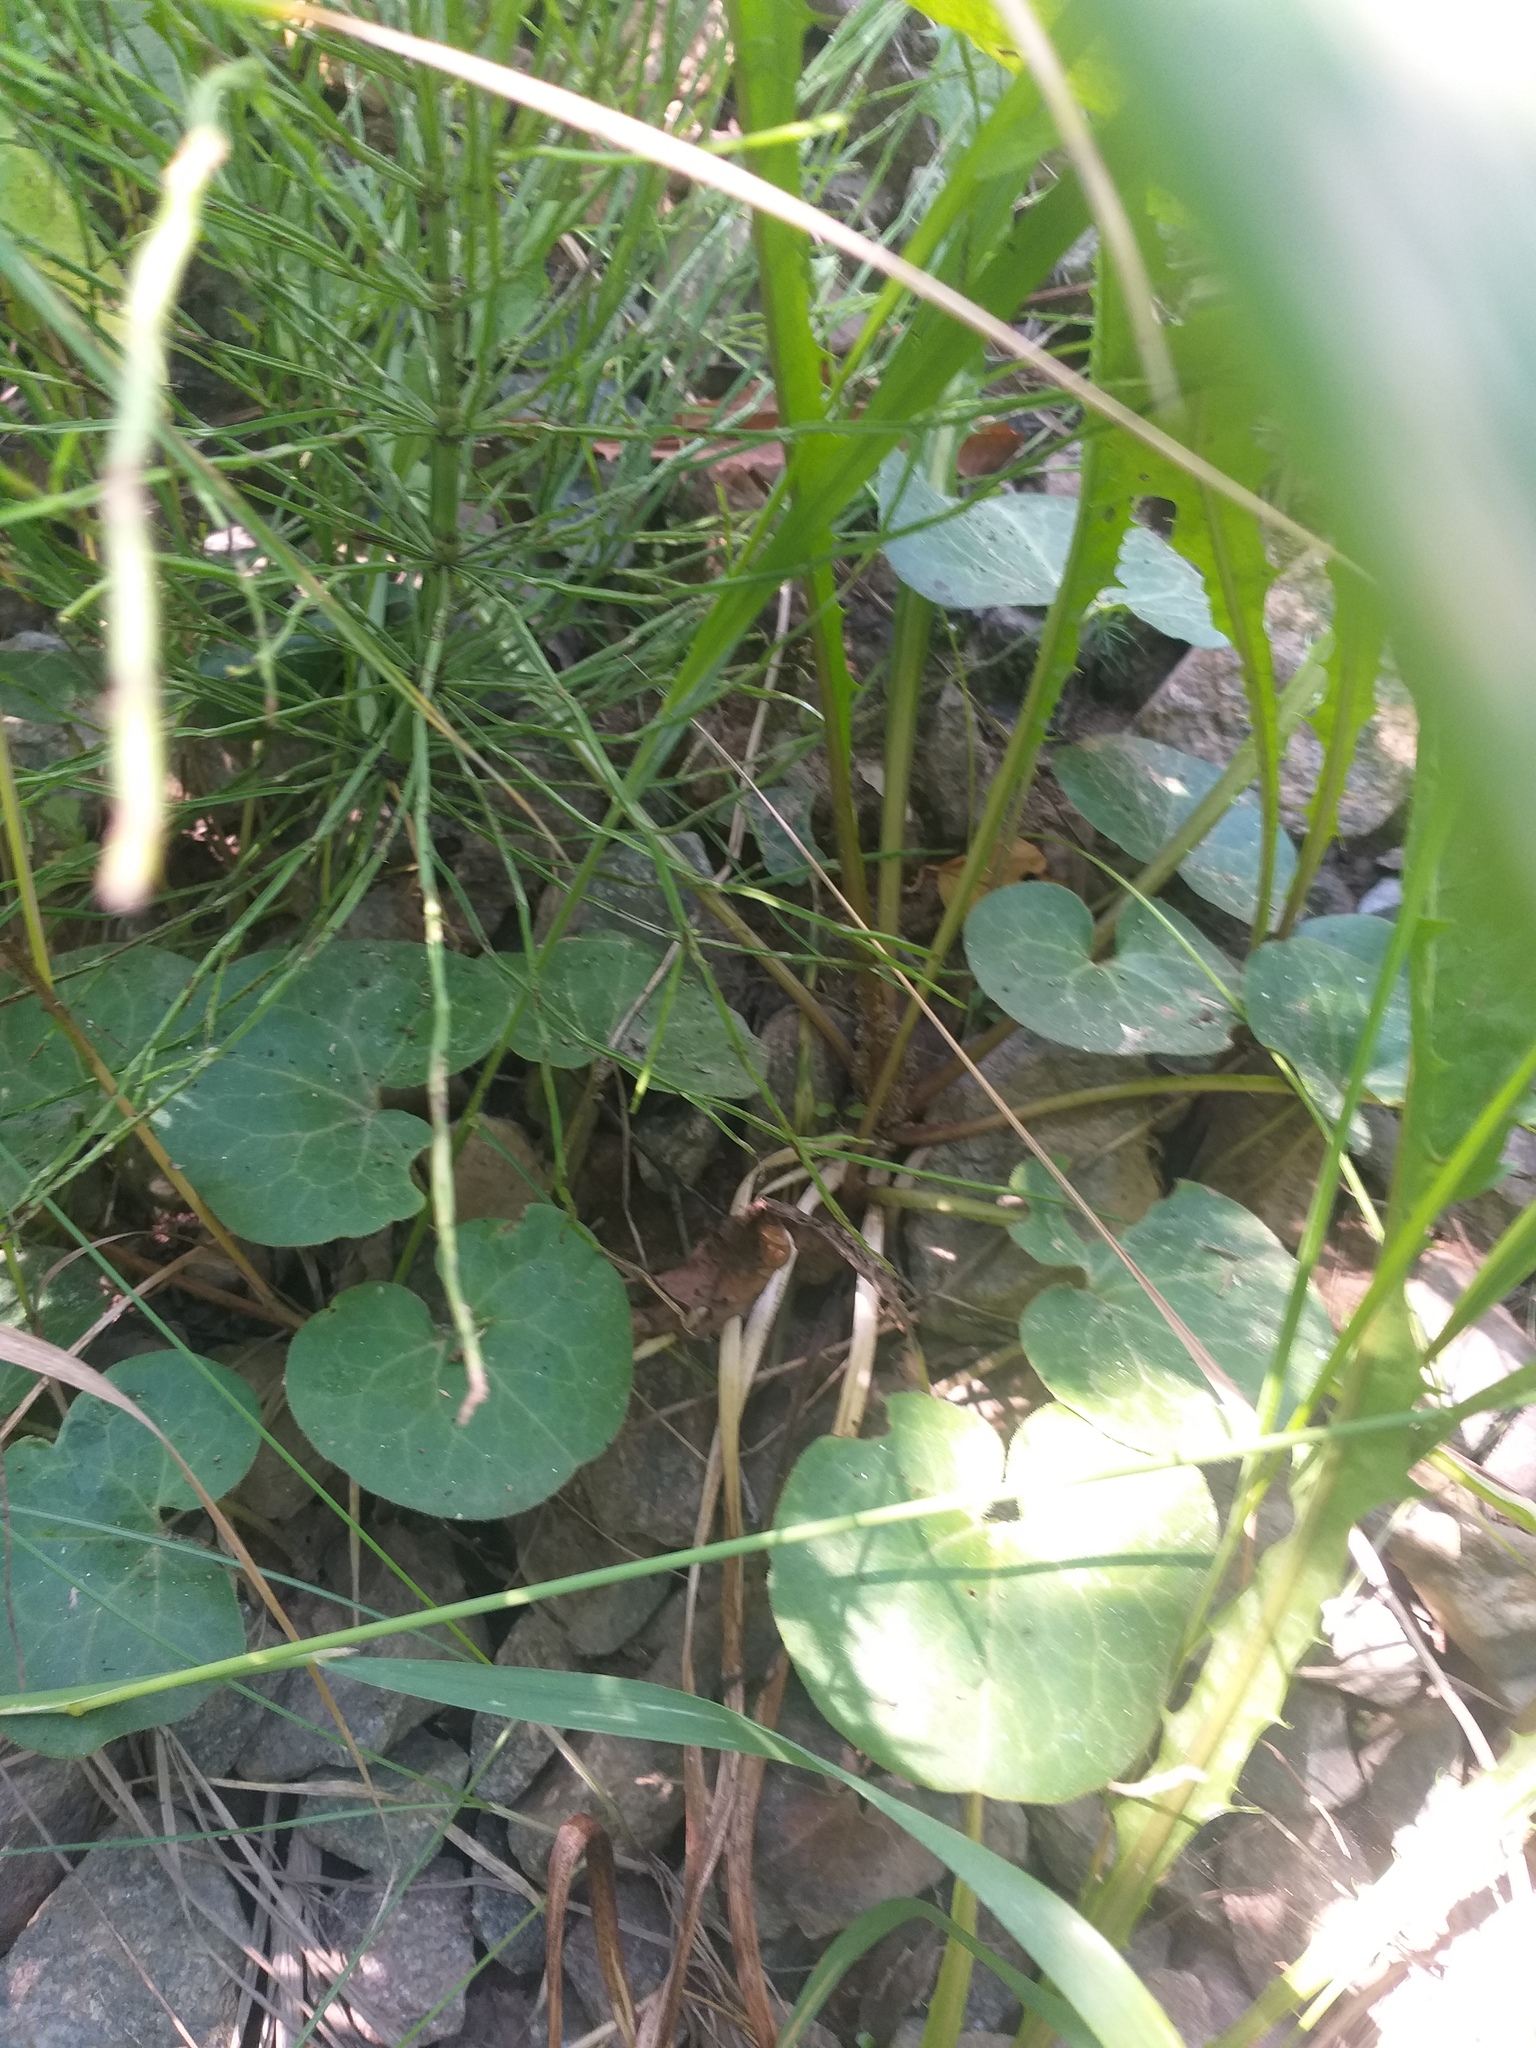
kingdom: Plantae
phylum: Tracheophyta
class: Magnoliopsida
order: Piperales
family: Aristolochiaceae
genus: Asarum
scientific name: Asarum europaeum
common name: Asarabacca
